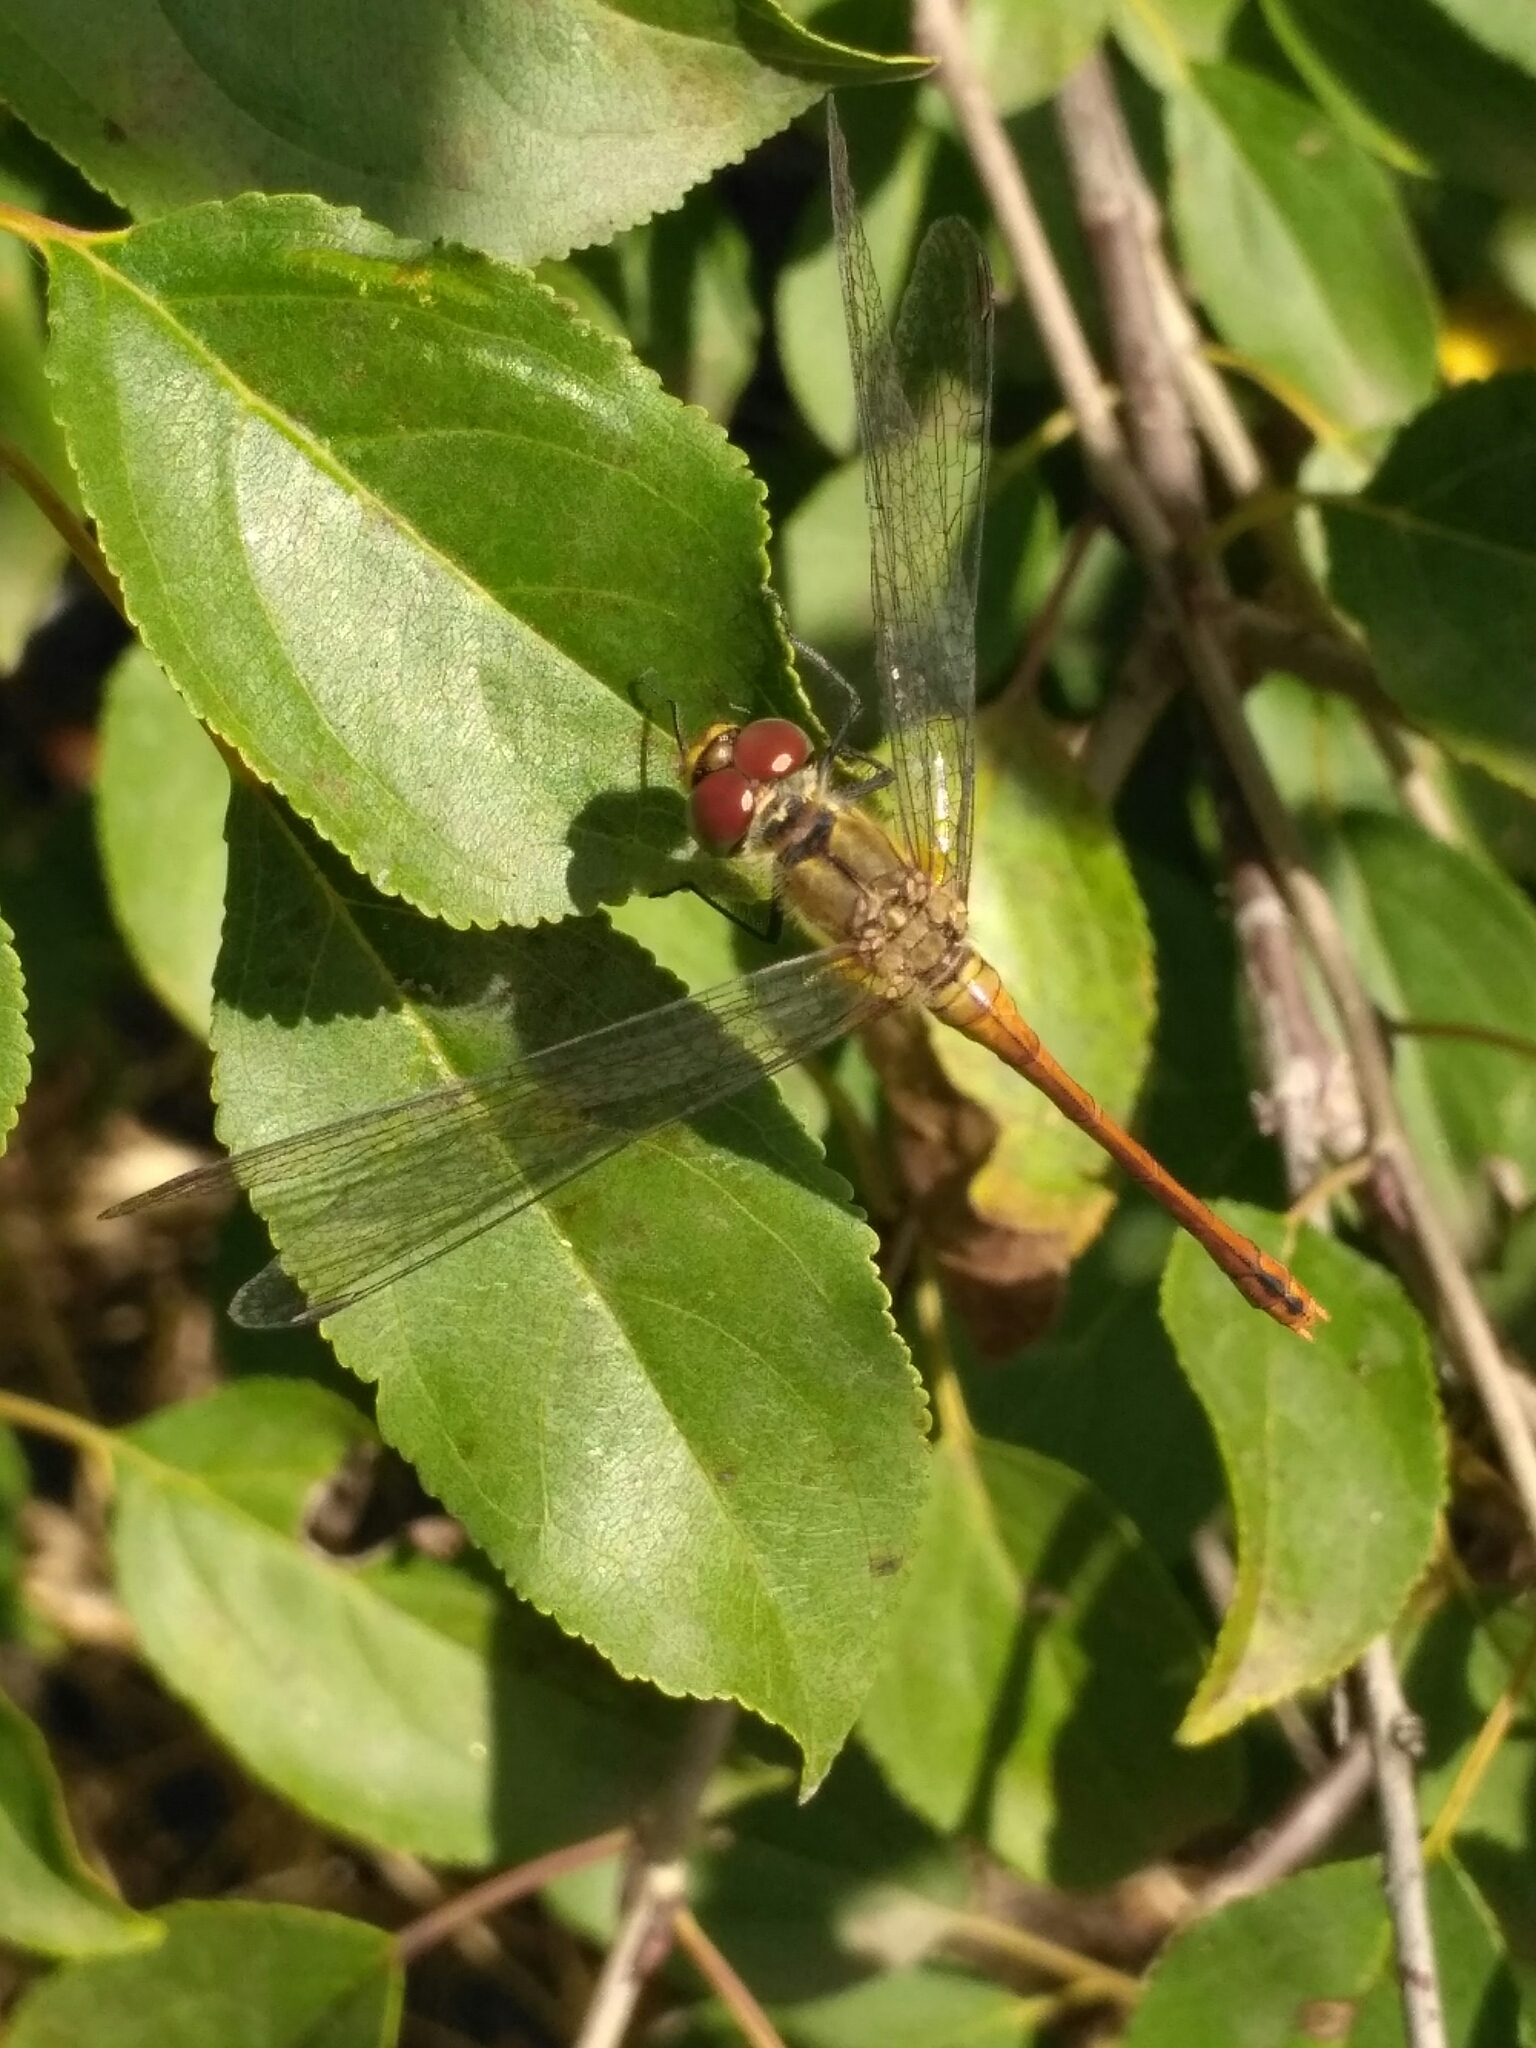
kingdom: Animalia
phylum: Arthropoda
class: Insecta
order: Odonata
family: Libellulidae
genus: Sympetrum
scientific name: Sympetrum sanguineum
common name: Ruddy darter
